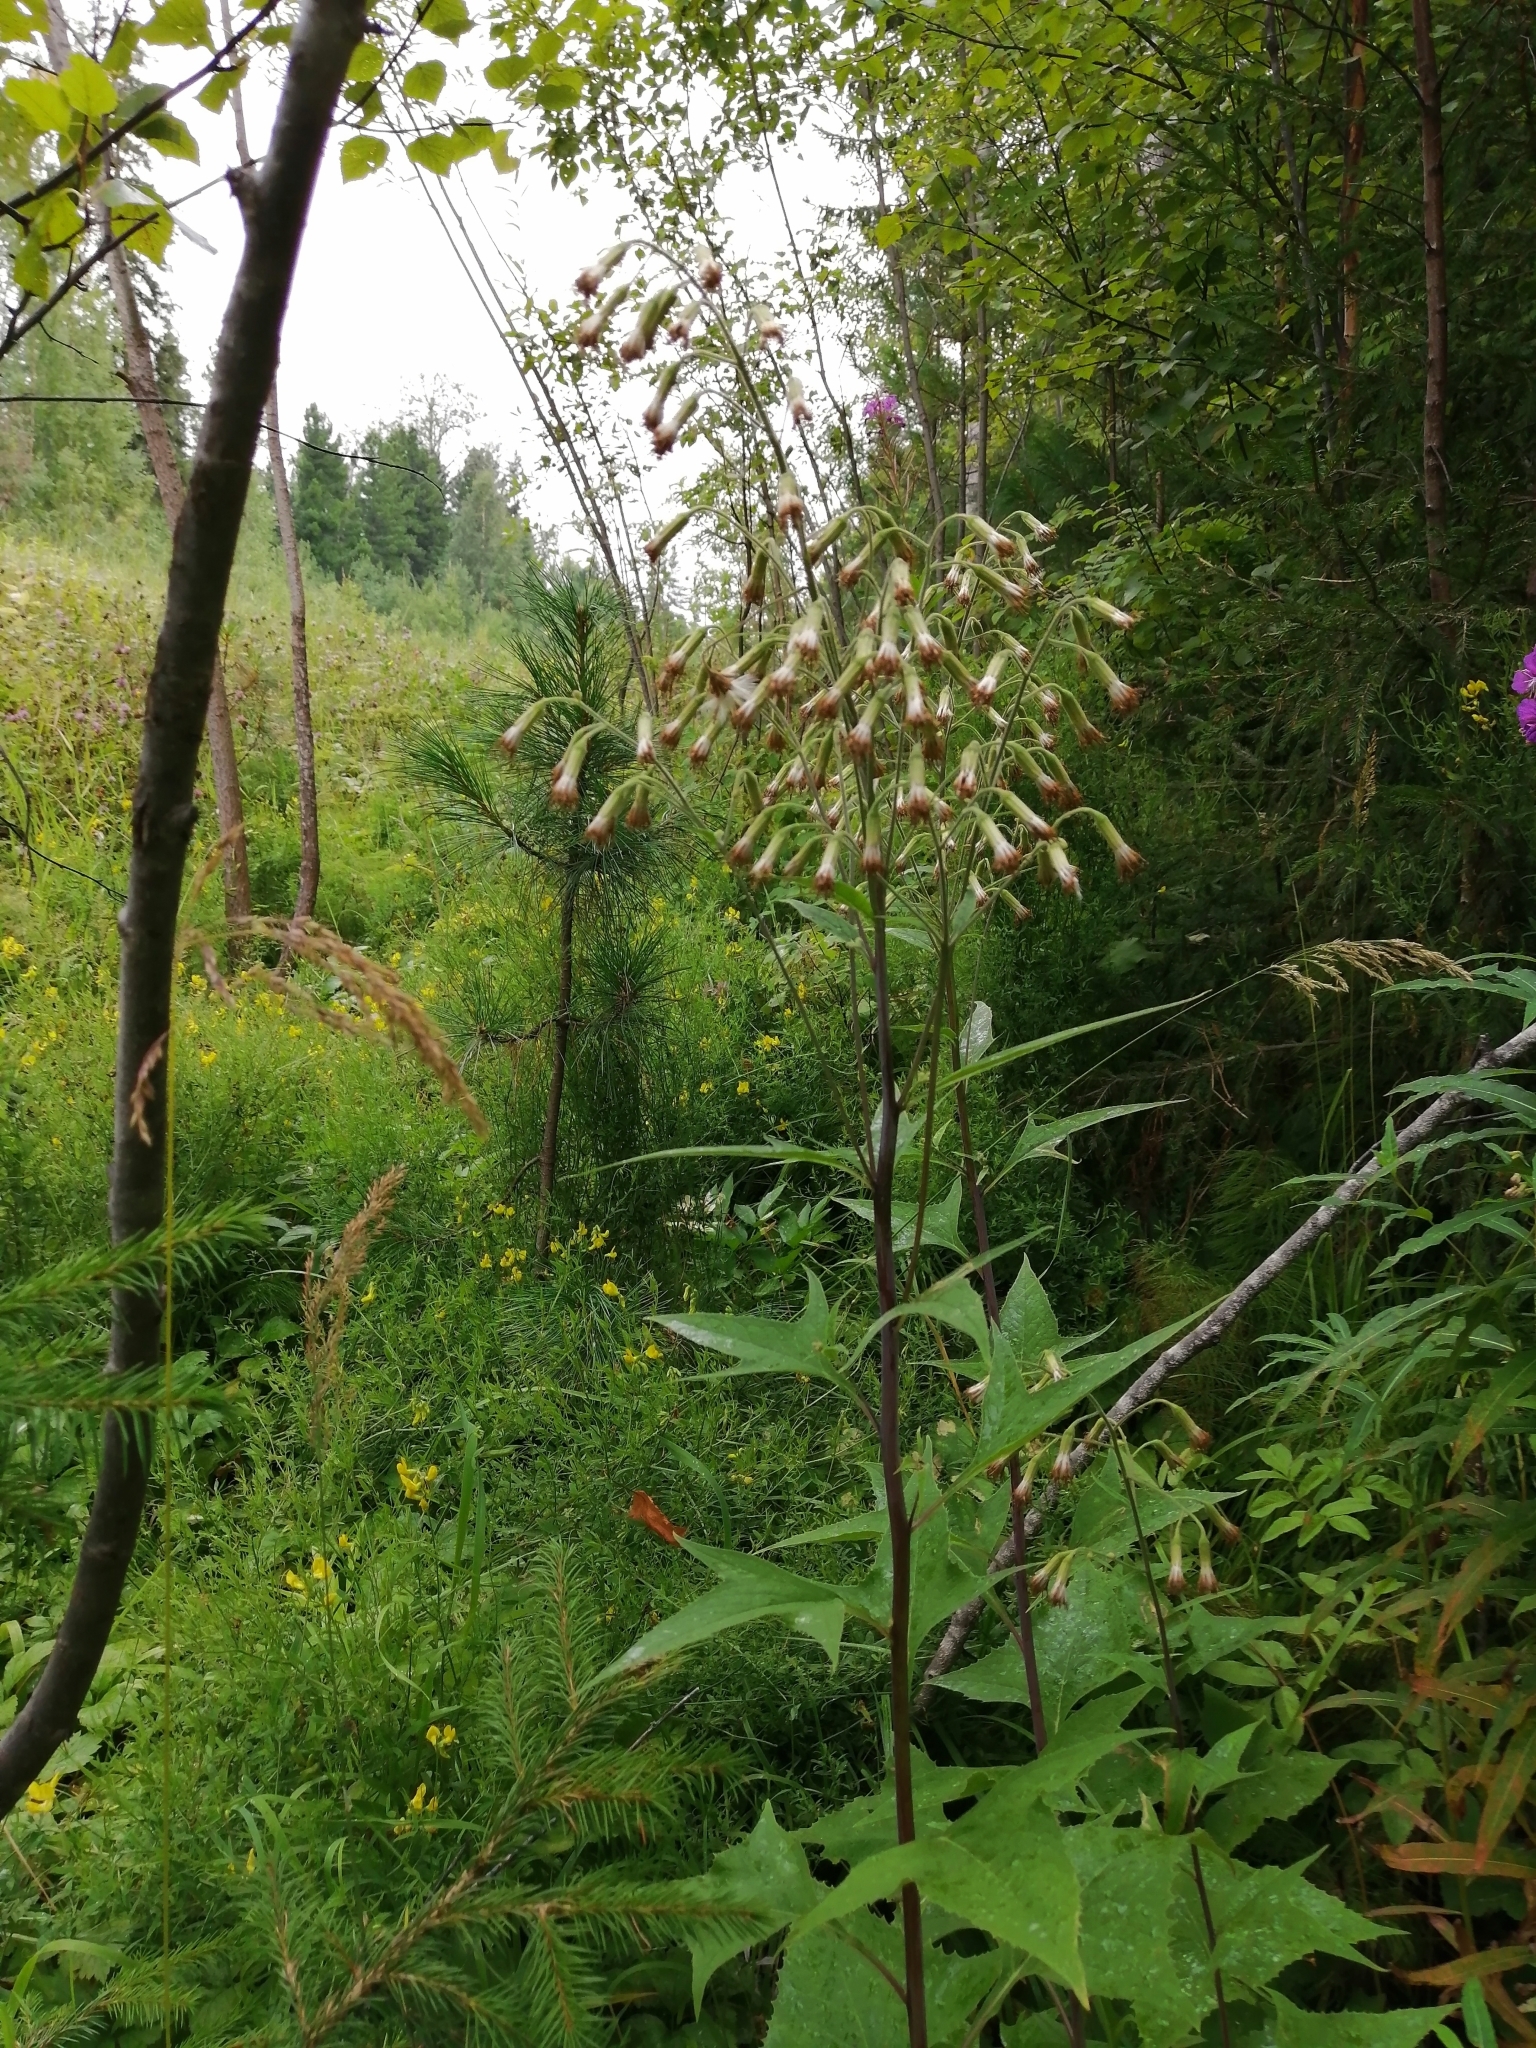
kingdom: Plantae
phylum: Tracheophyta
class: Magnoliopsida
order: Asterales
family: Asteraceae
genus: Parasenecio
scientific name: Parasenecio hastatus
